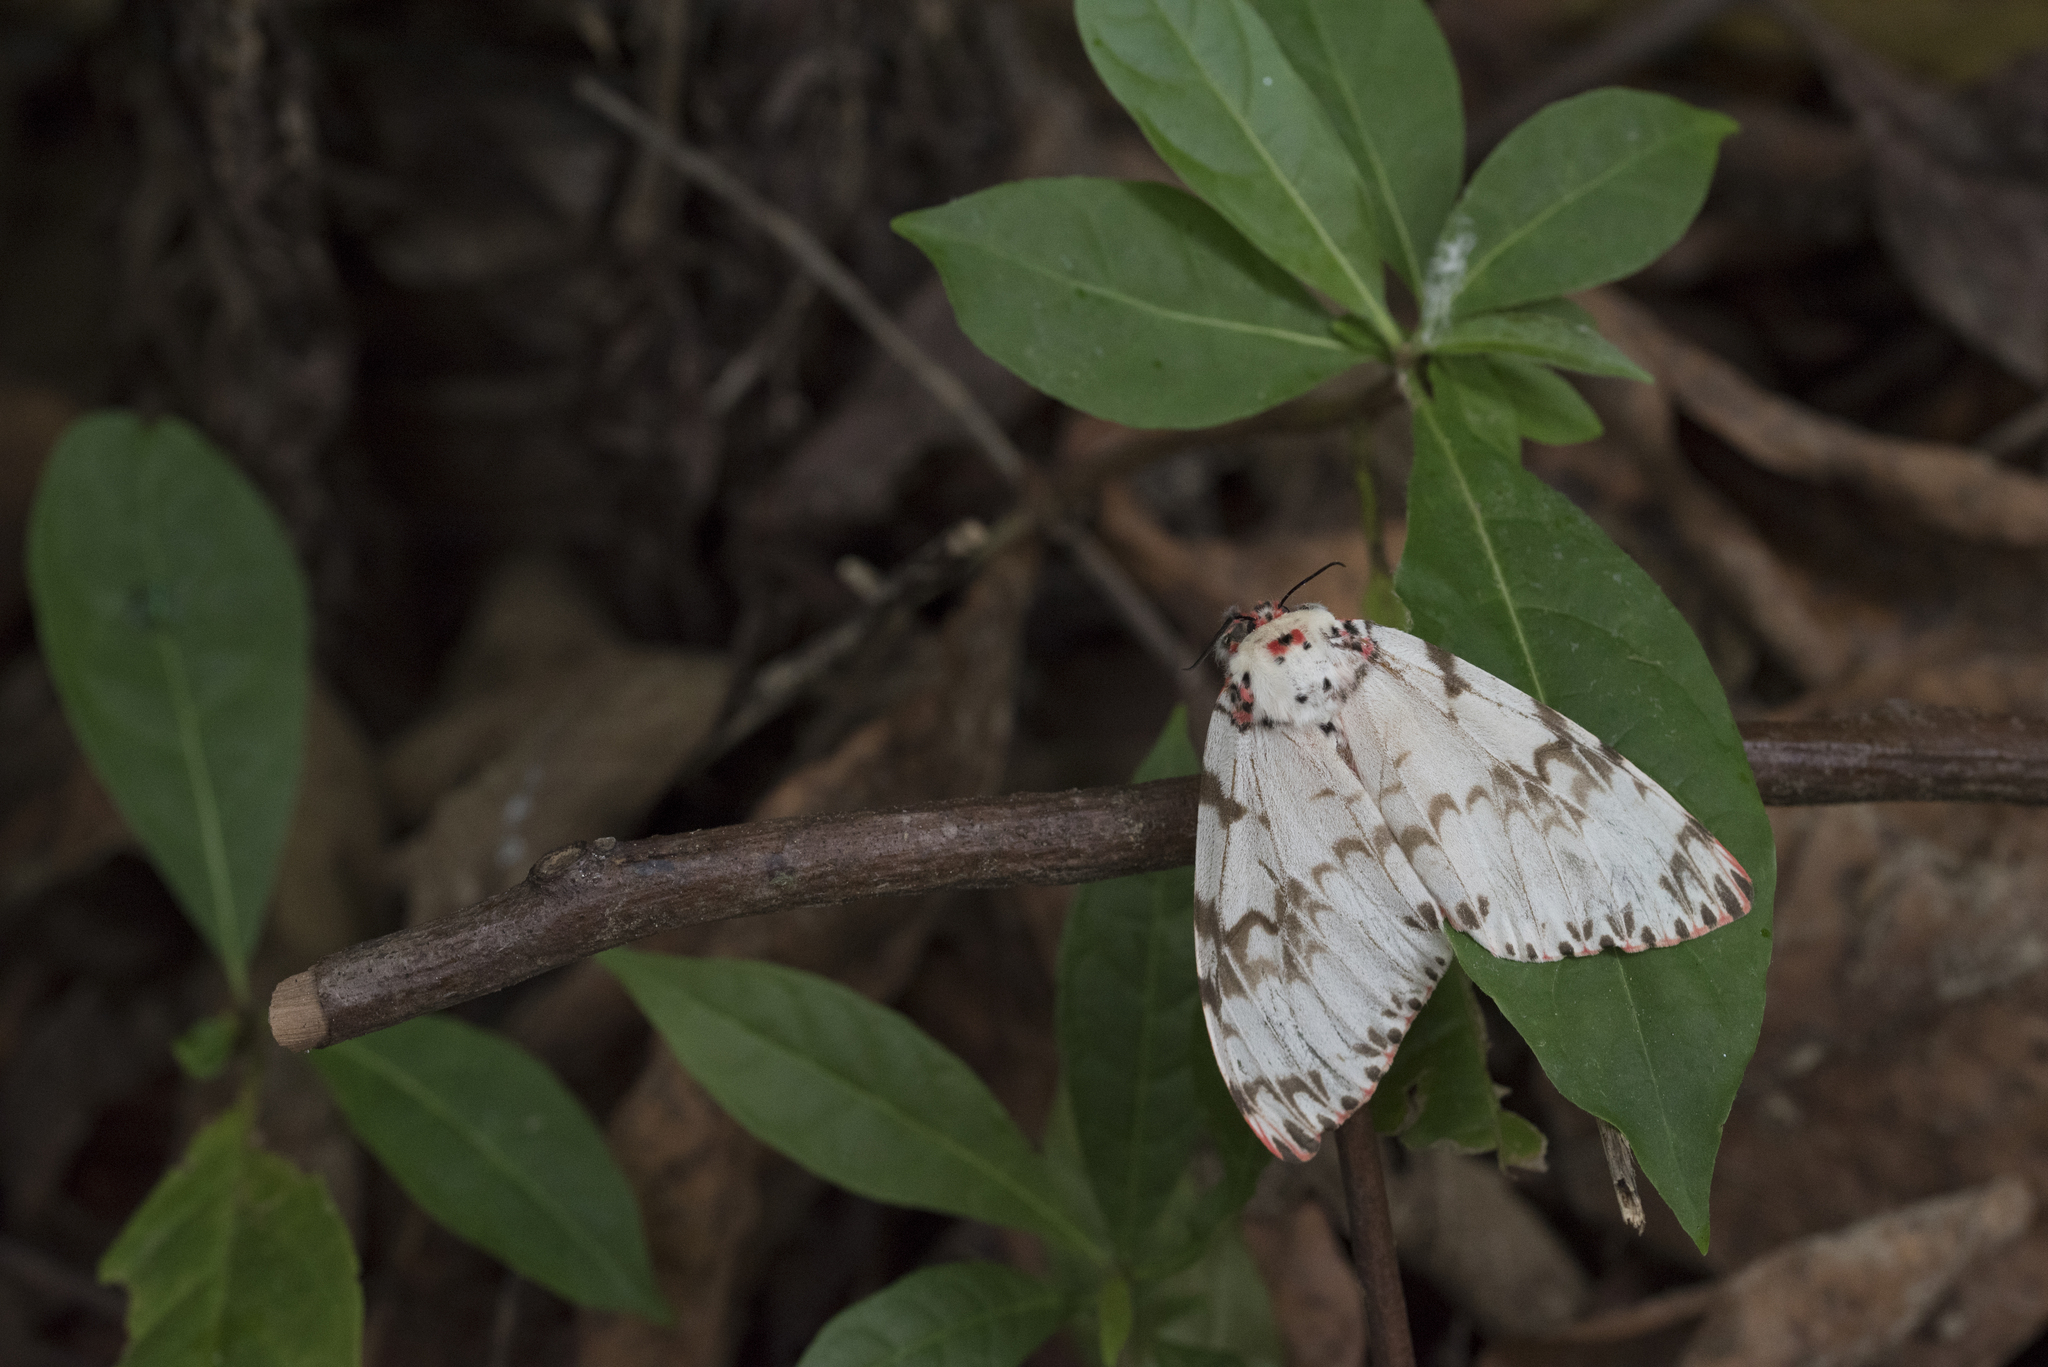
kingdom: Animalia
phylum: Arthropoda
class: Insecta
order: Lepidoptera
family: Erebidae
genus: Lymantria
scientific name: Lymantria mathura
